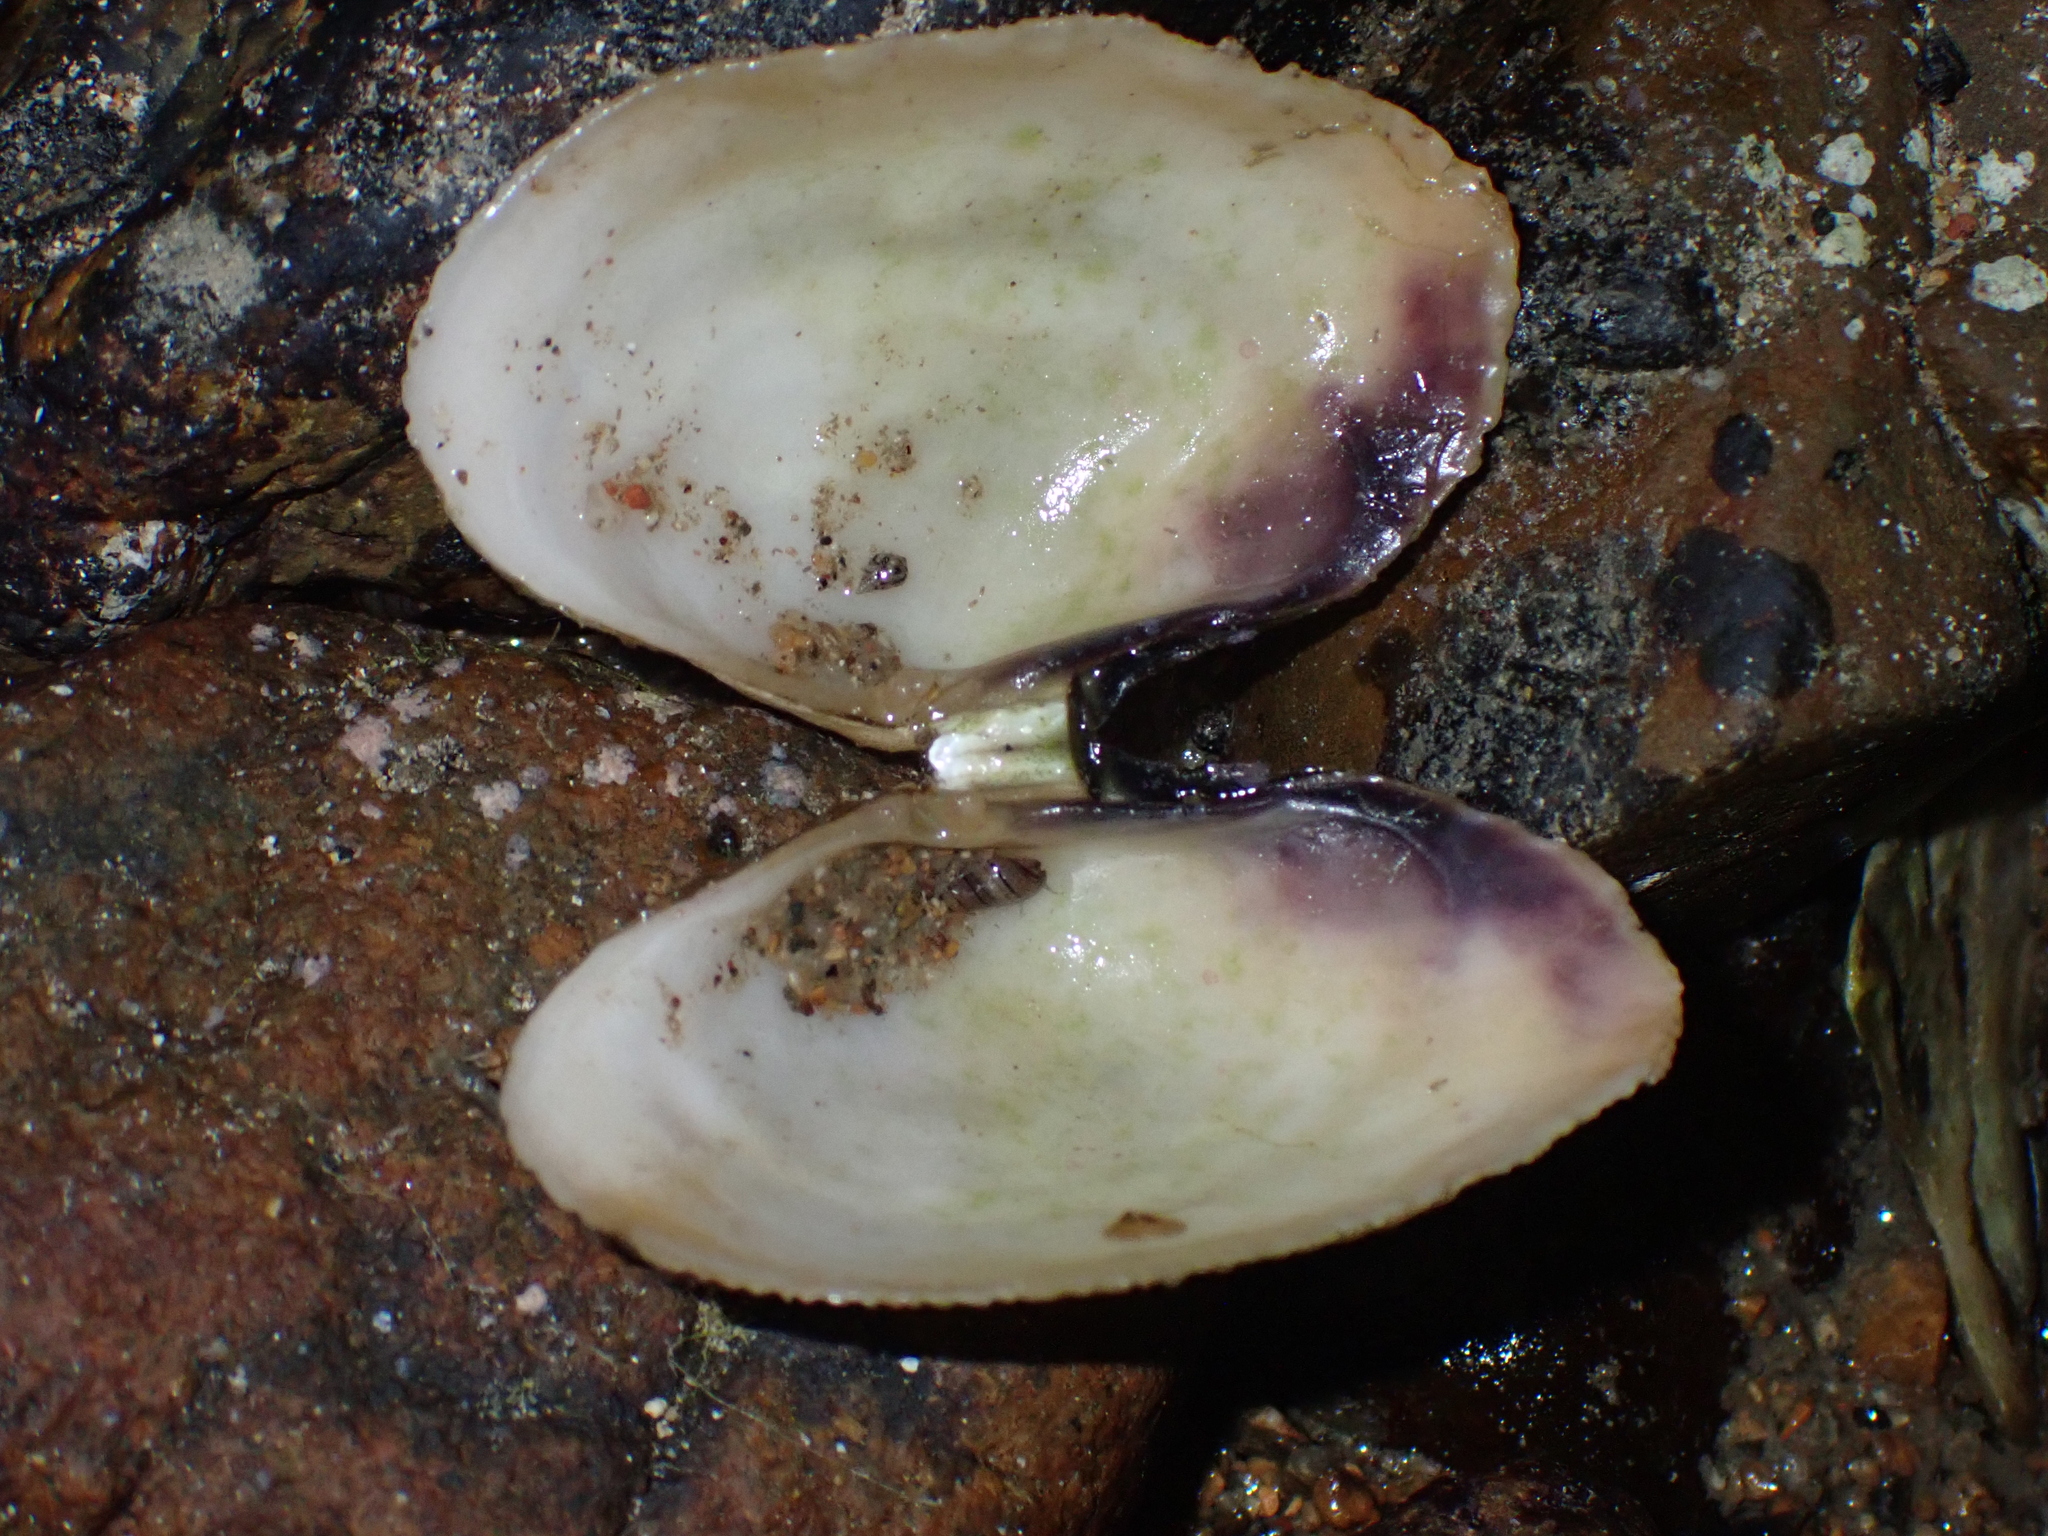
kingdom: Animalia
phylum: Mollusca
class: Bivalvia
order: Cardiida
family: Psammobiidae
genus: Asaphis
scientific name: Asaphis violascens
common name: Pacific asaphis
